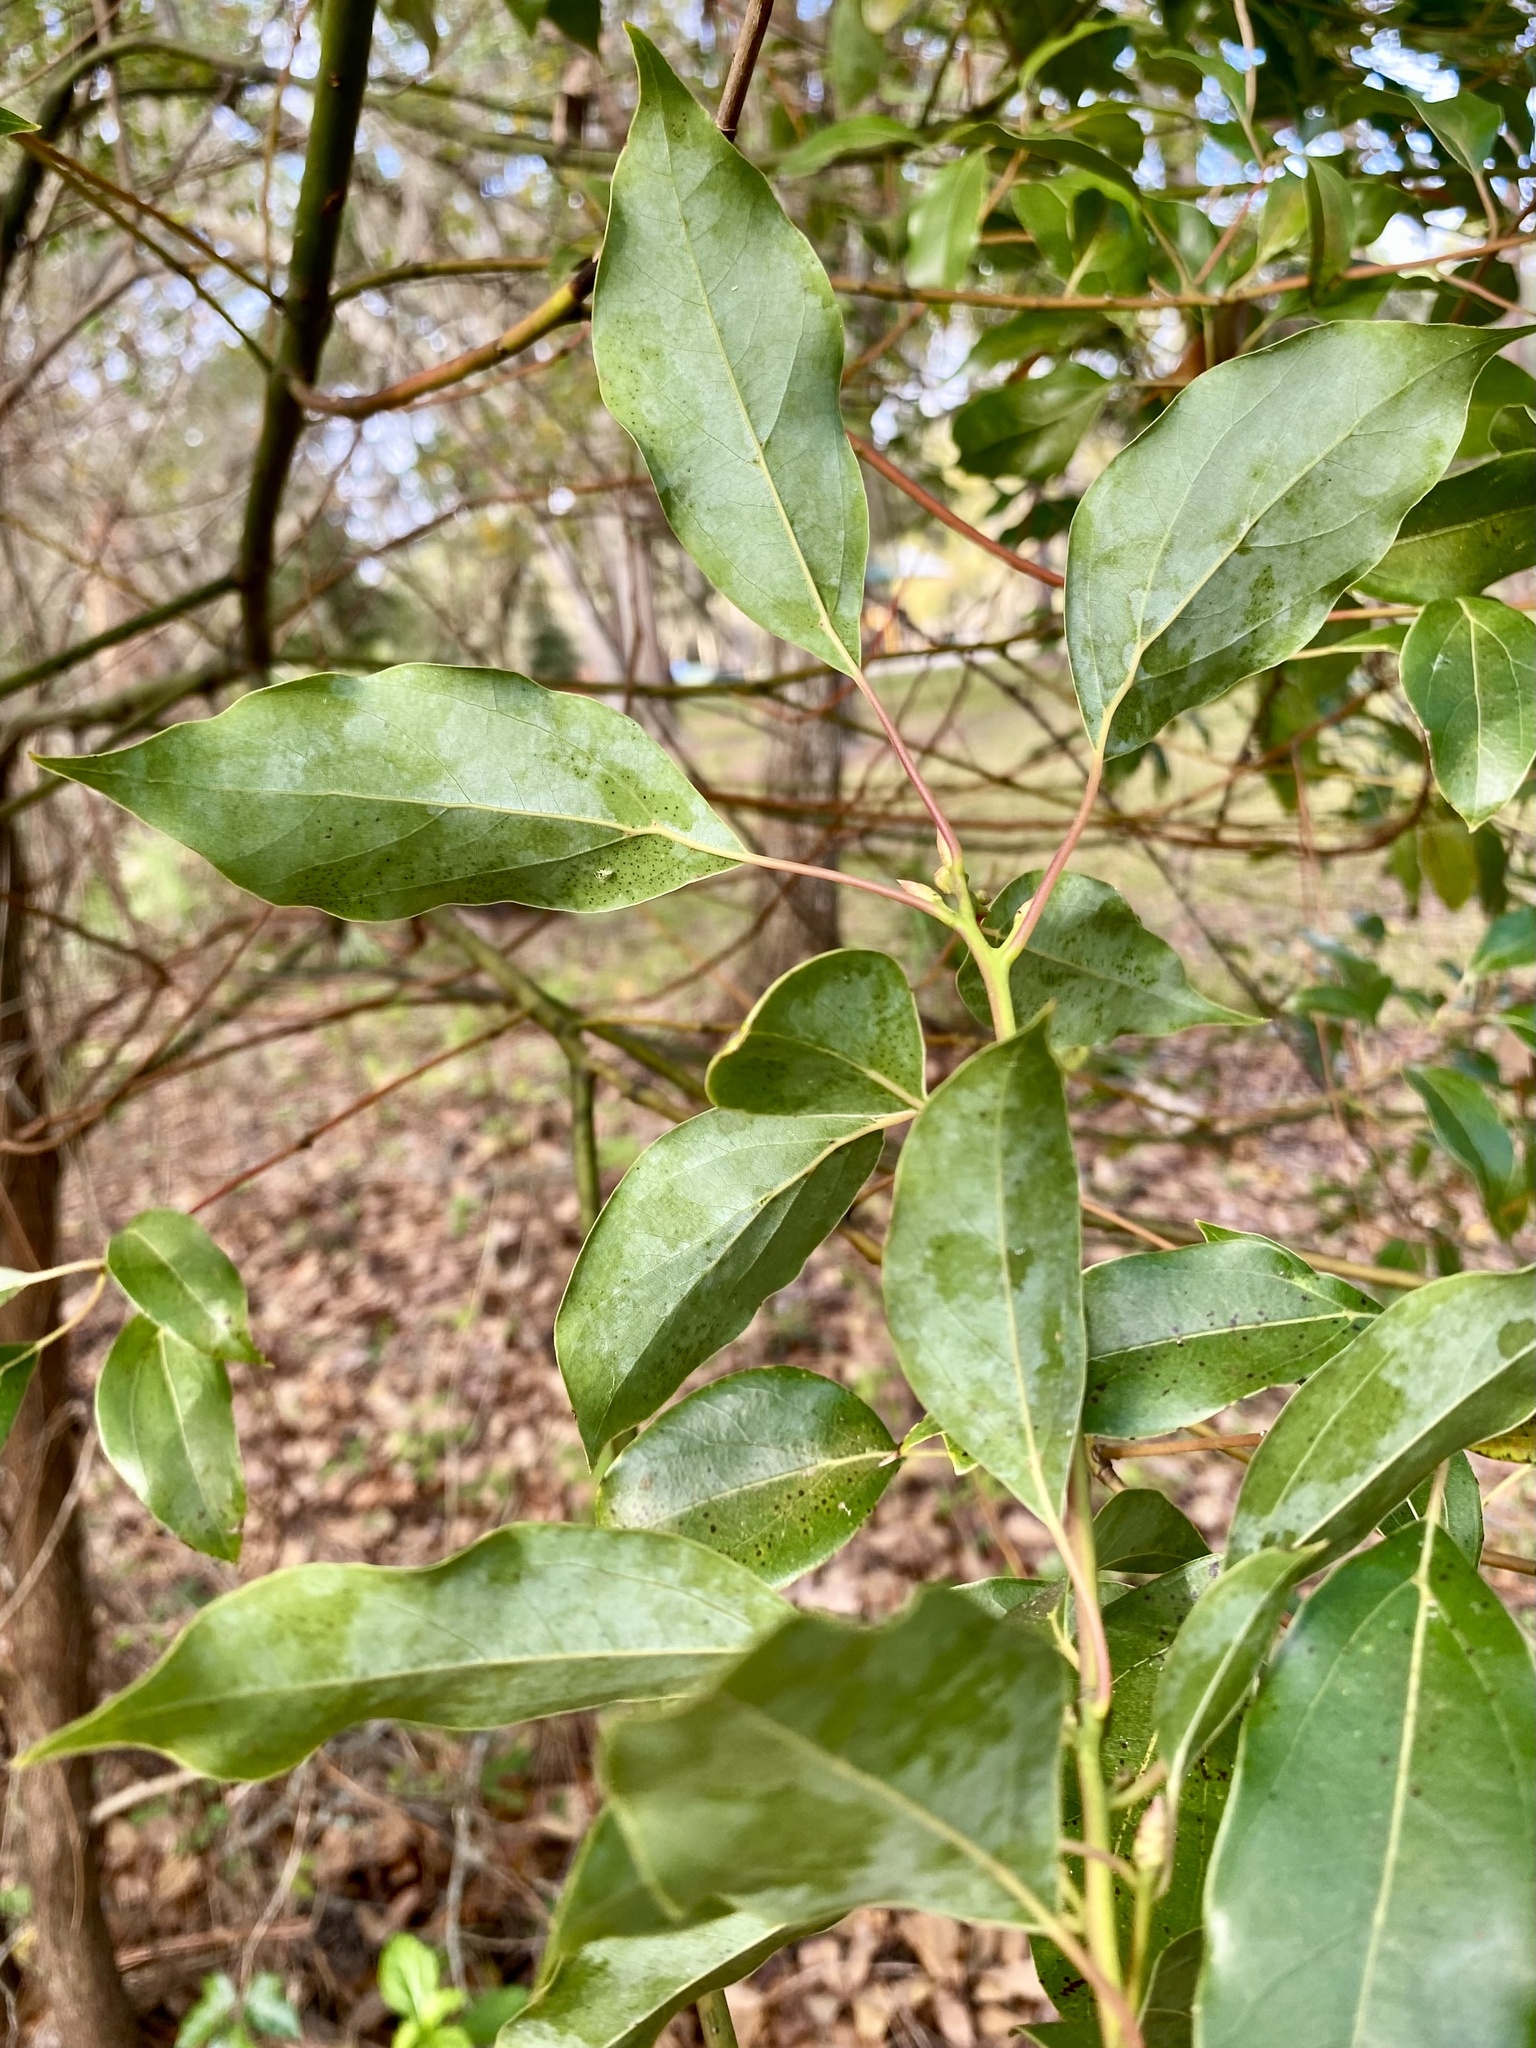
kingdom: Plantae
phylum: Tracheophyta
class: Magnoliopsida
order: Laurales
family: Lauraceae
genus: Cinnamomum
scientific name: Cinnamomum camphora
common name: Camphortree
